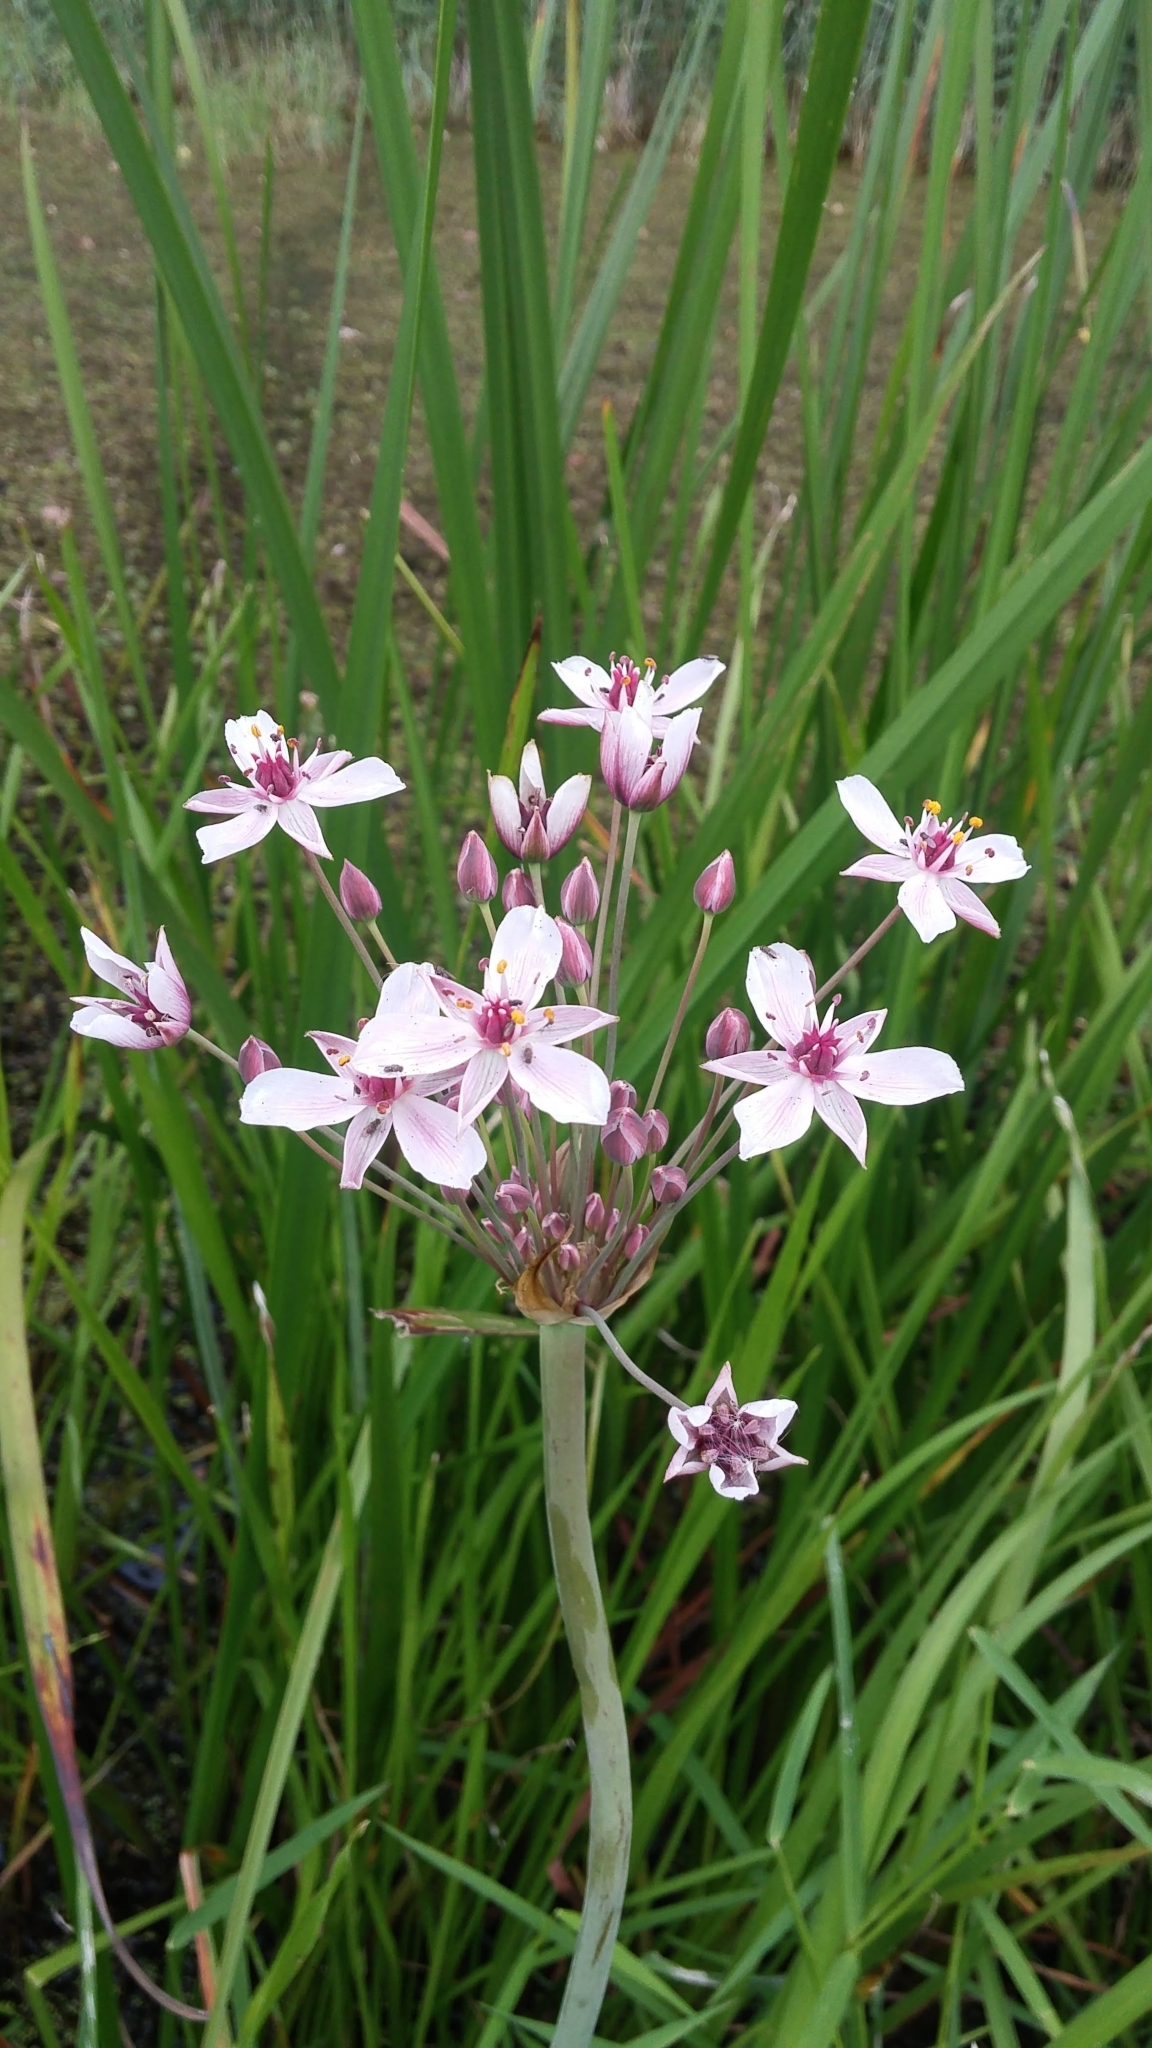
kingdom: Plantae
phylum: Tracheophyta
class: Liliopsida
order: Alismatales
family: Butomaceae
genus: Butomus
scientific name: Butomus umbellatus
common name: Flowering-rush
